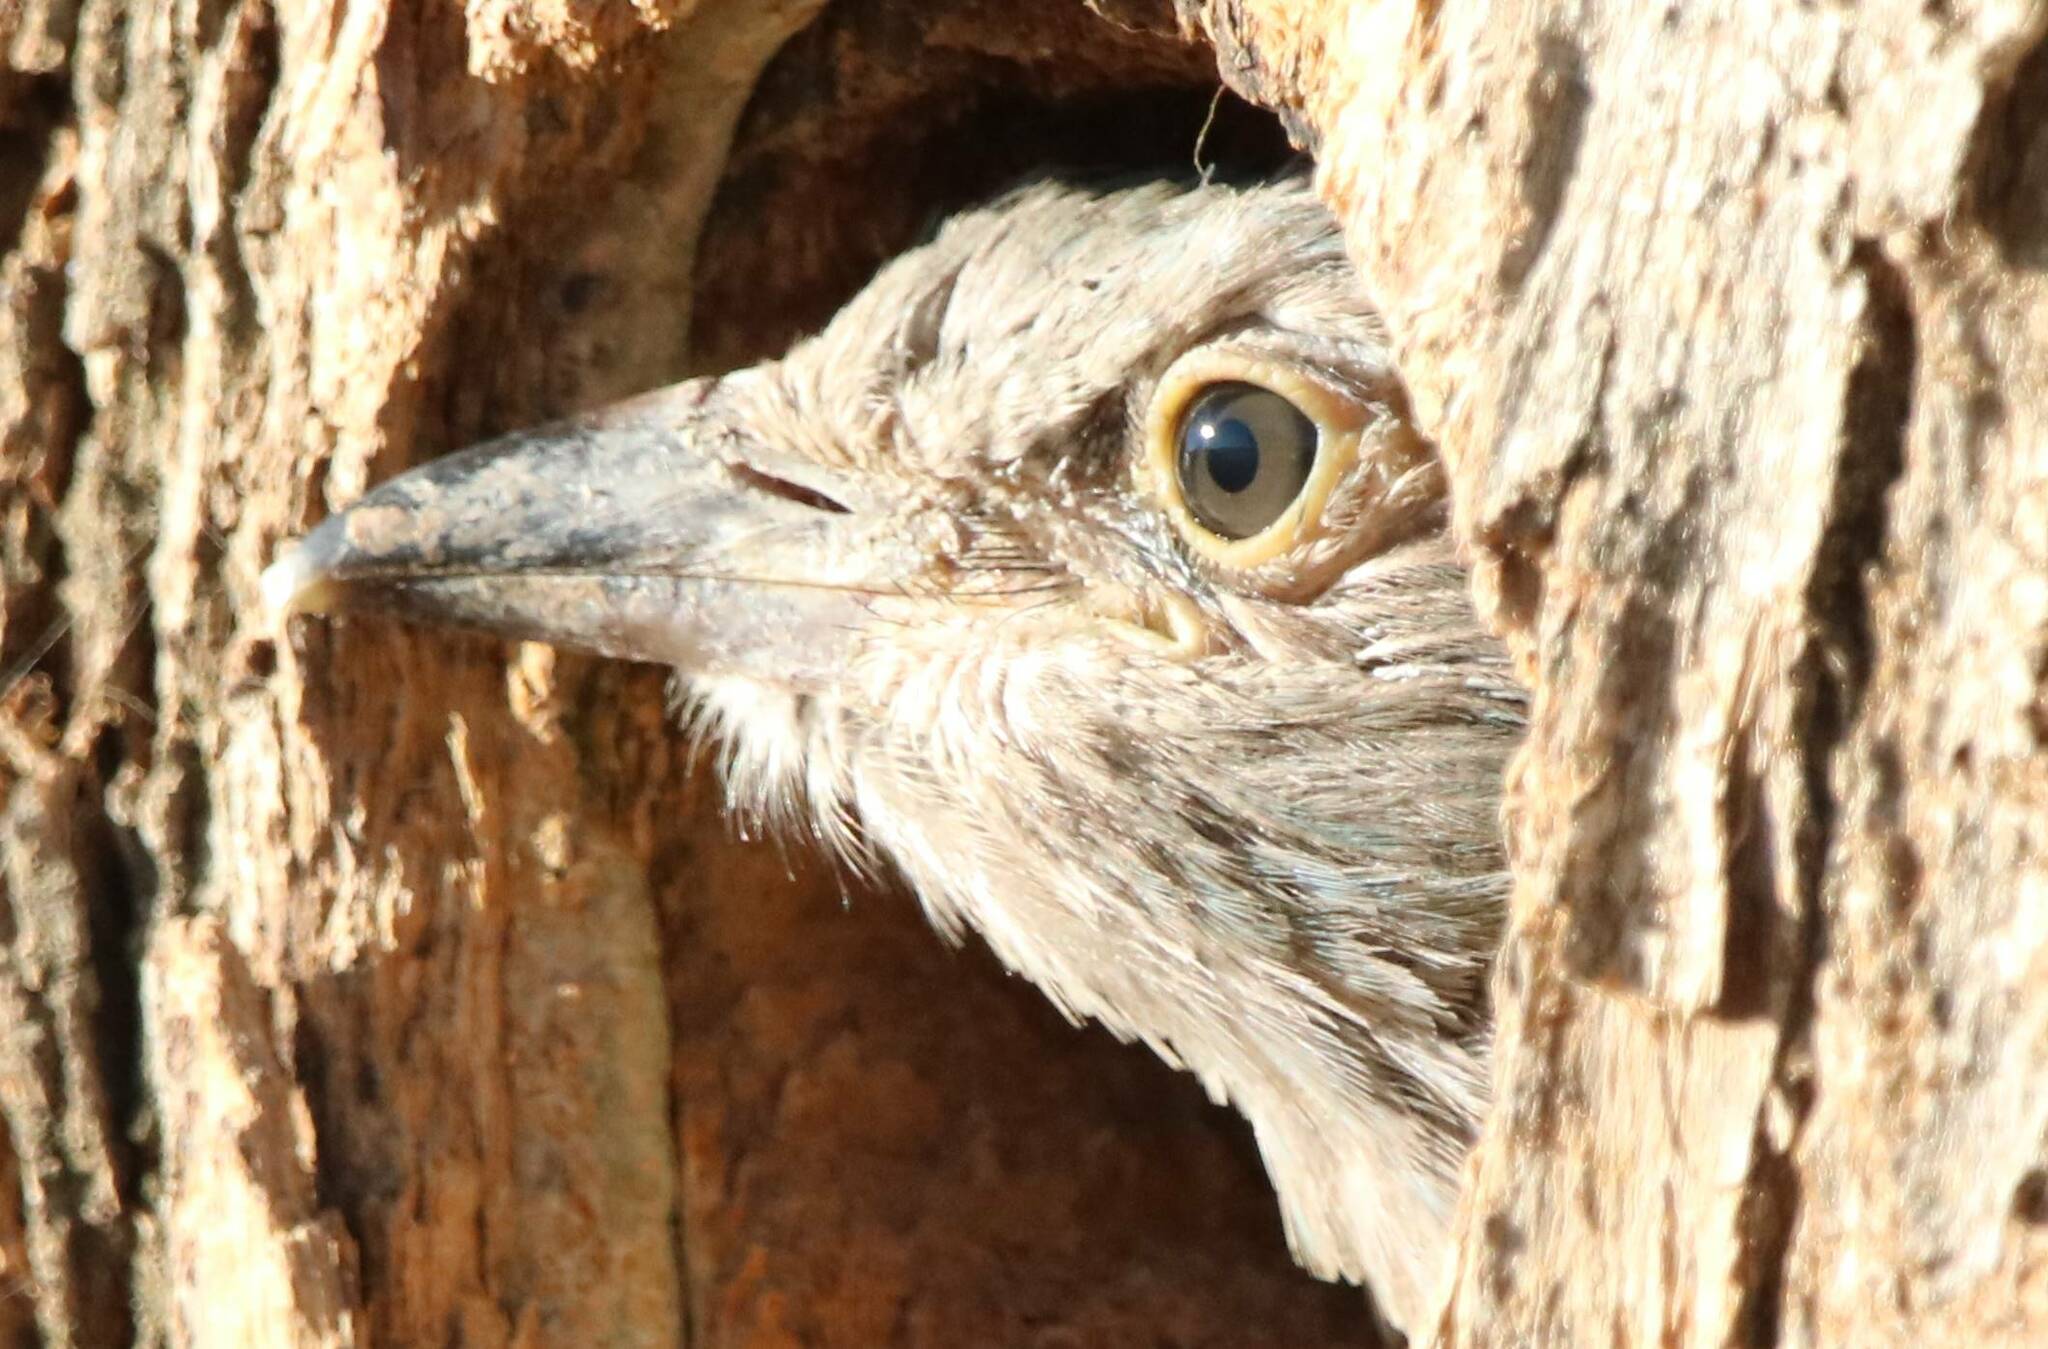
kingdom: Animalia
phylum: Chordata
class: Aves
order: Coraciiformes
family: Coraciidae
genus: Coracias
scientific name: Coracias garrulus
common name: European roller
